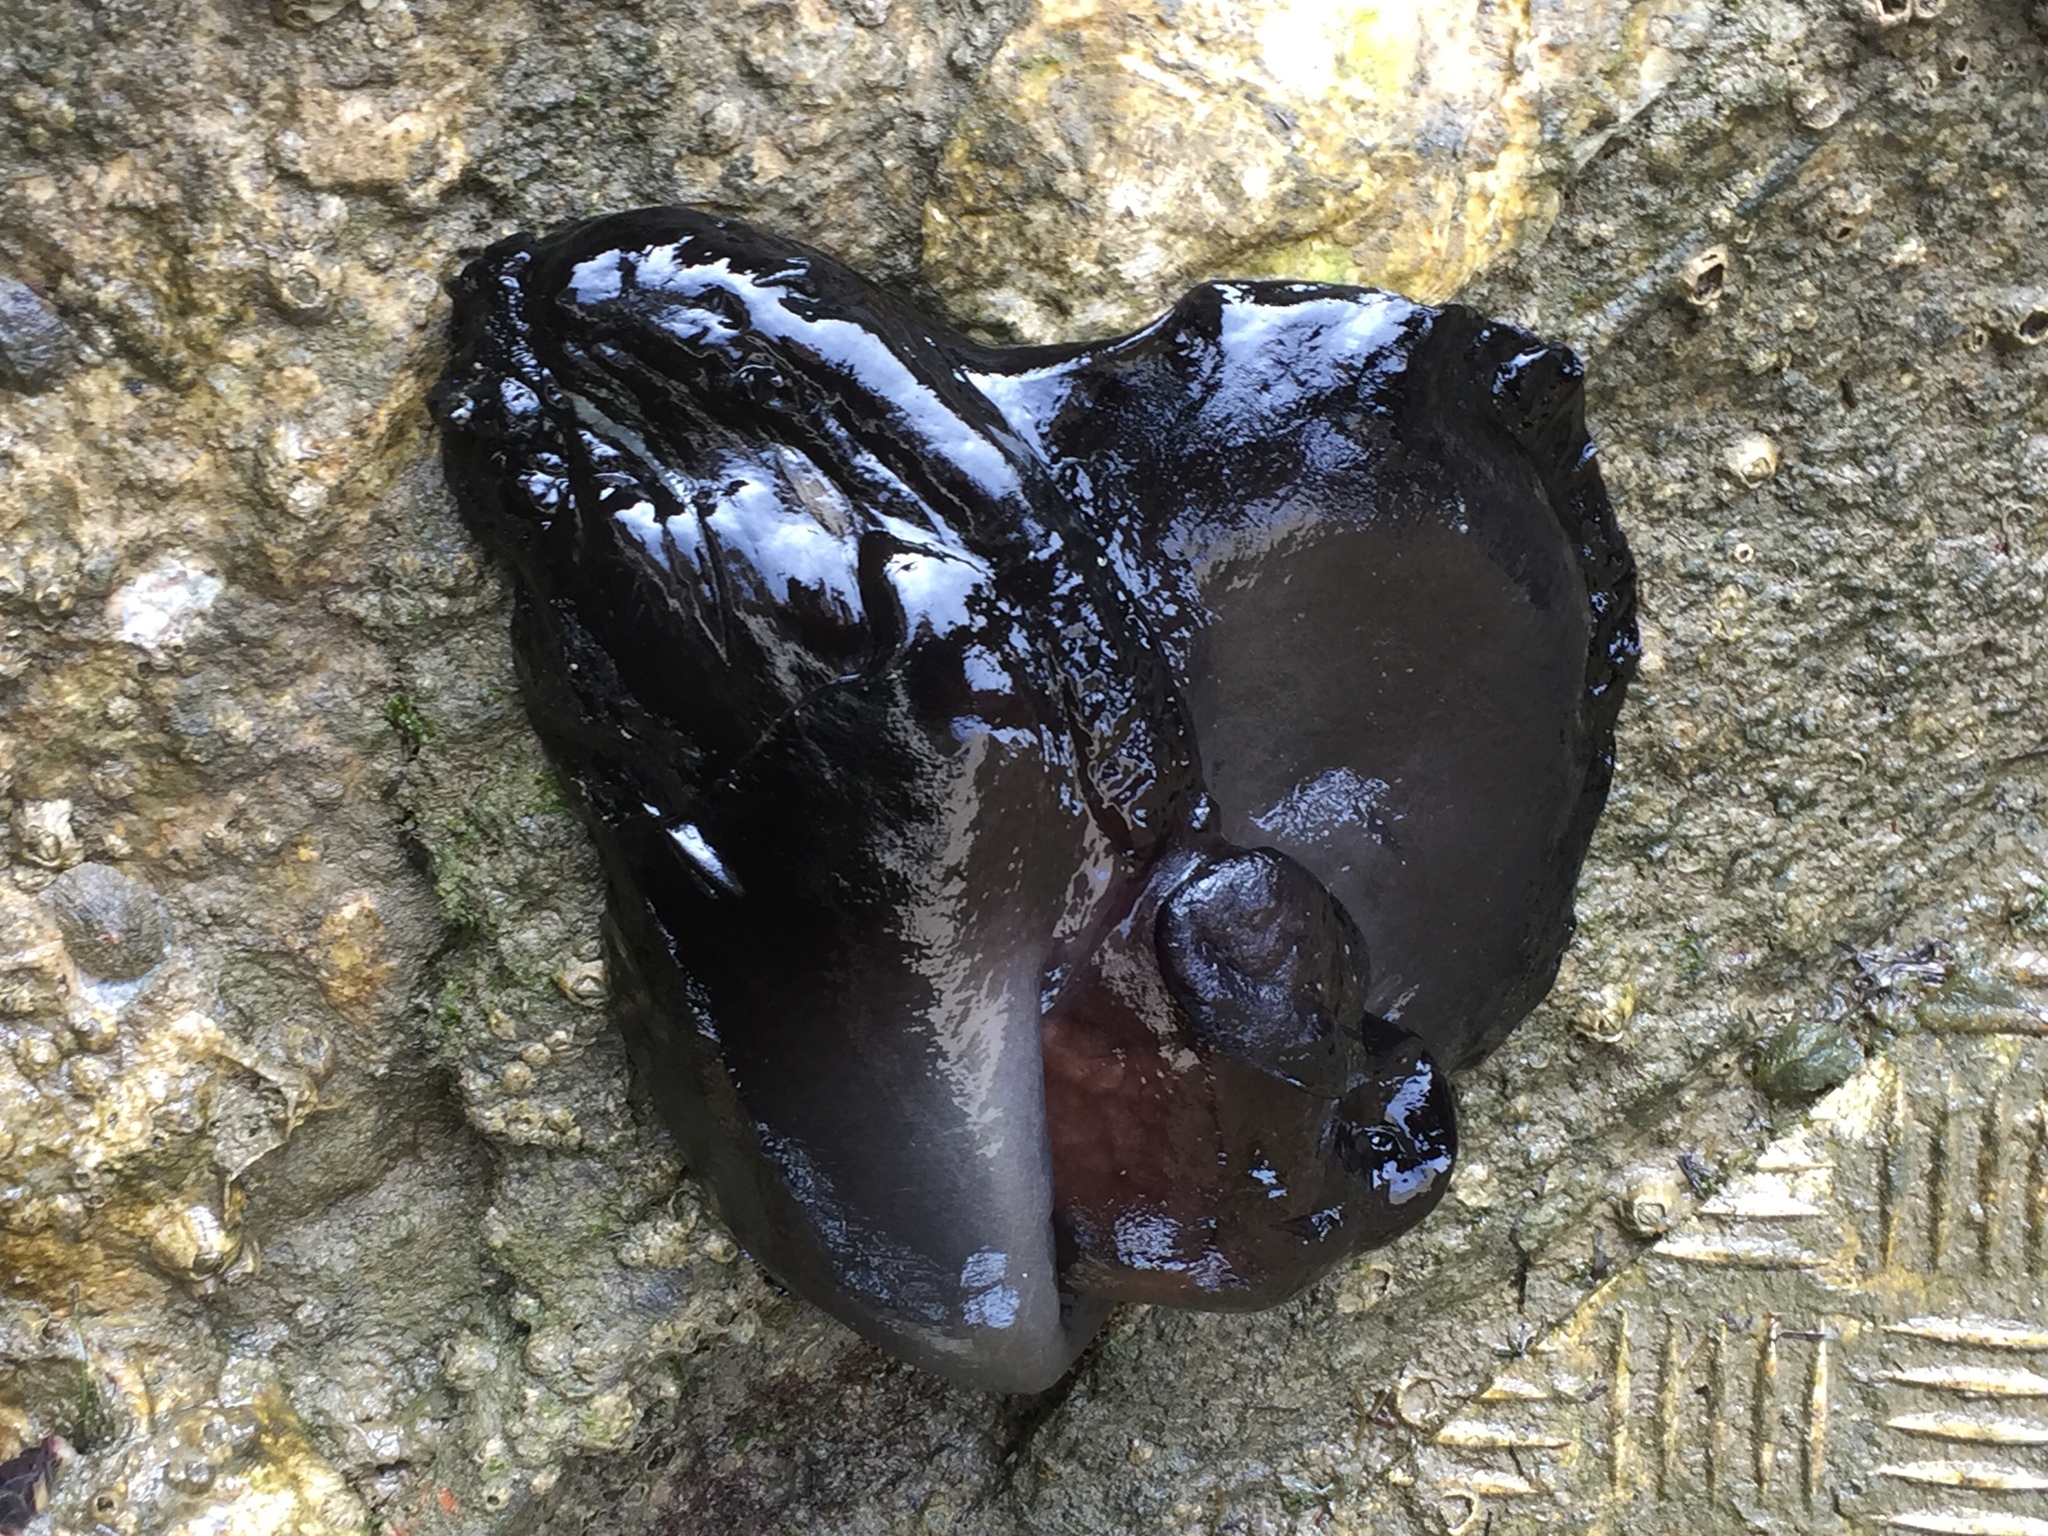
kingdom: Animalia
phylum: Mollusca
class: Gastropoda
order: Aplysiida
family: Aplysiidae
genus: Aplysia
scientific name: Aplysia fasciata
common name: Banded sea hare
